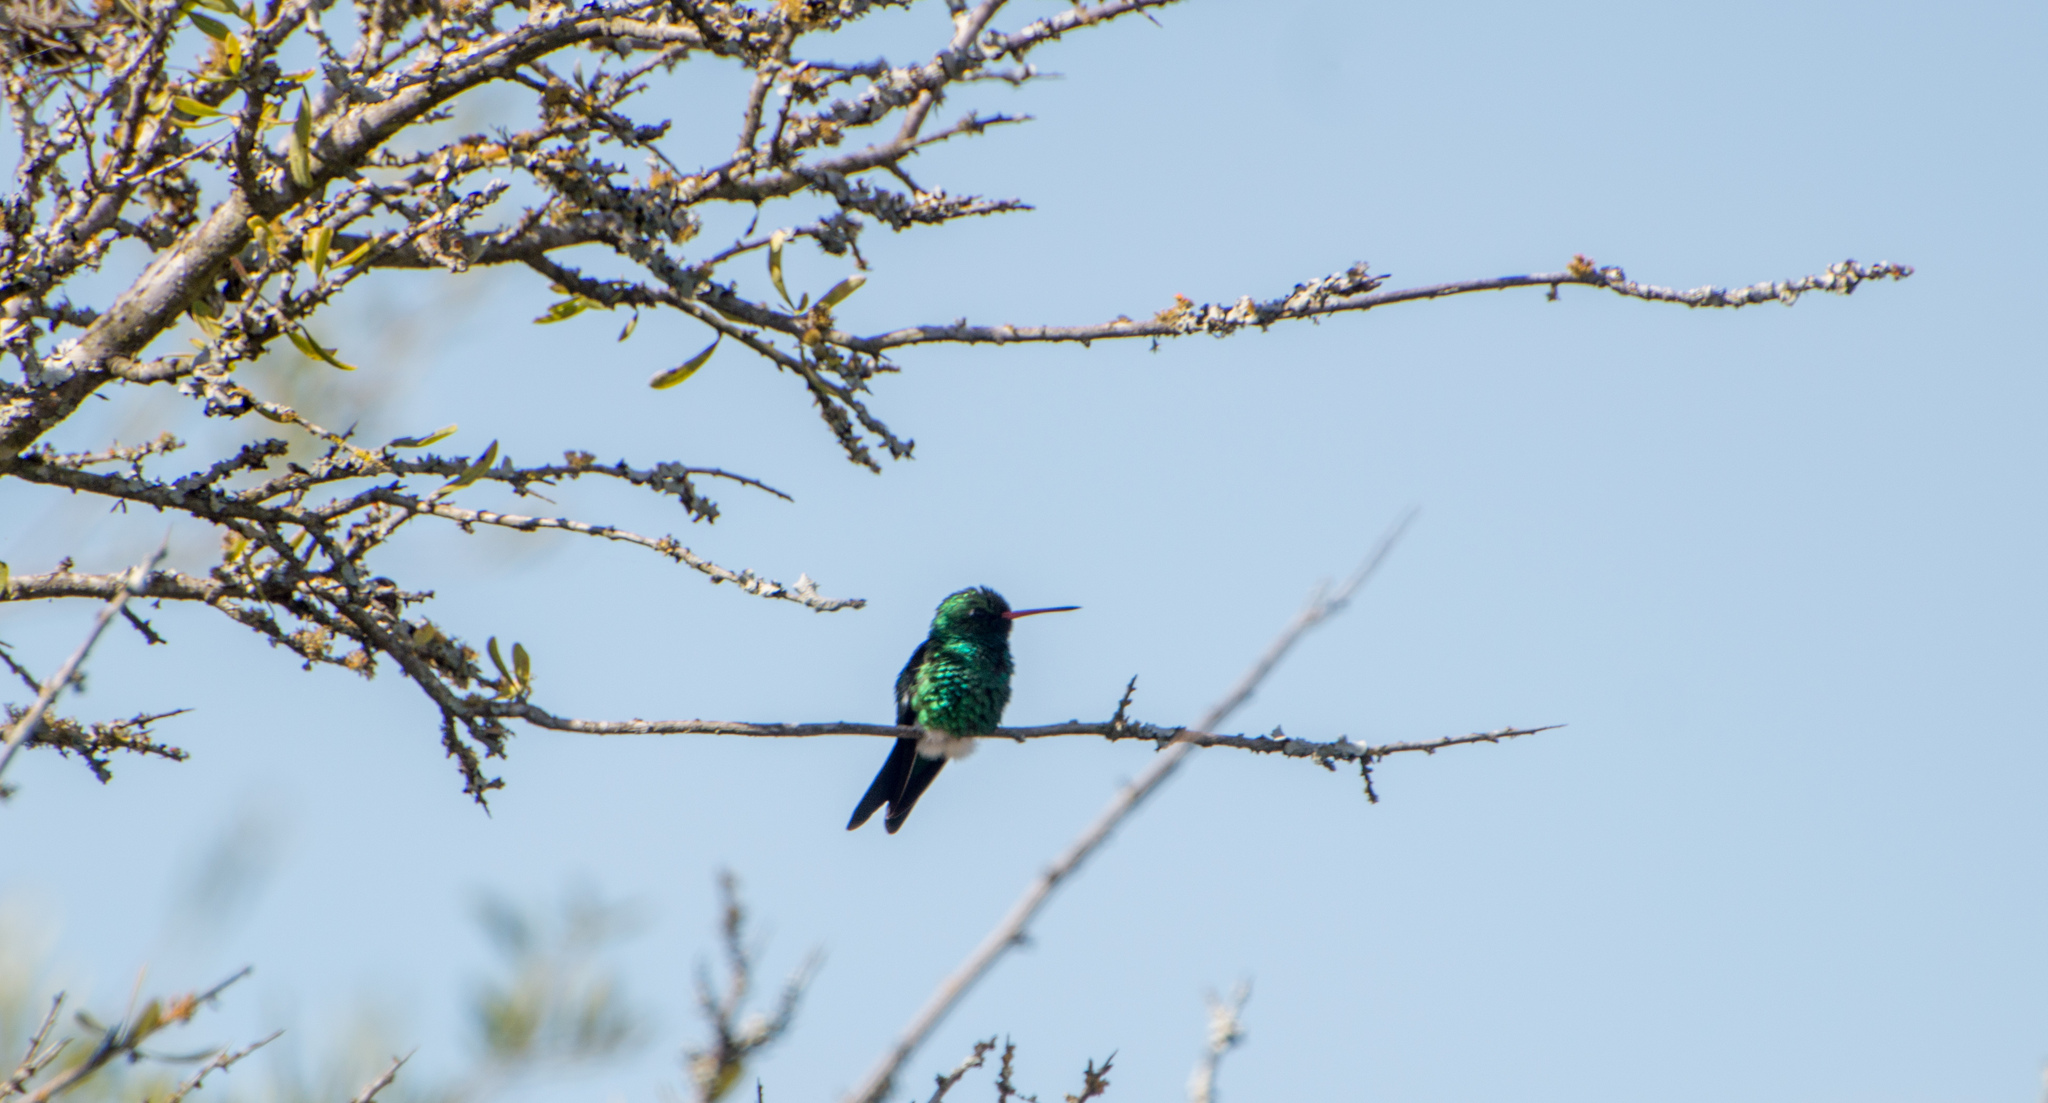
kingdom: Animalia
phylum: Chordata
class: Aves
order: Apodiformes
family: Trochilidae
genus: Chlorostilbon
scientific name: Chlorostilbon lucidus
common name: Glittering-bellied emerald
